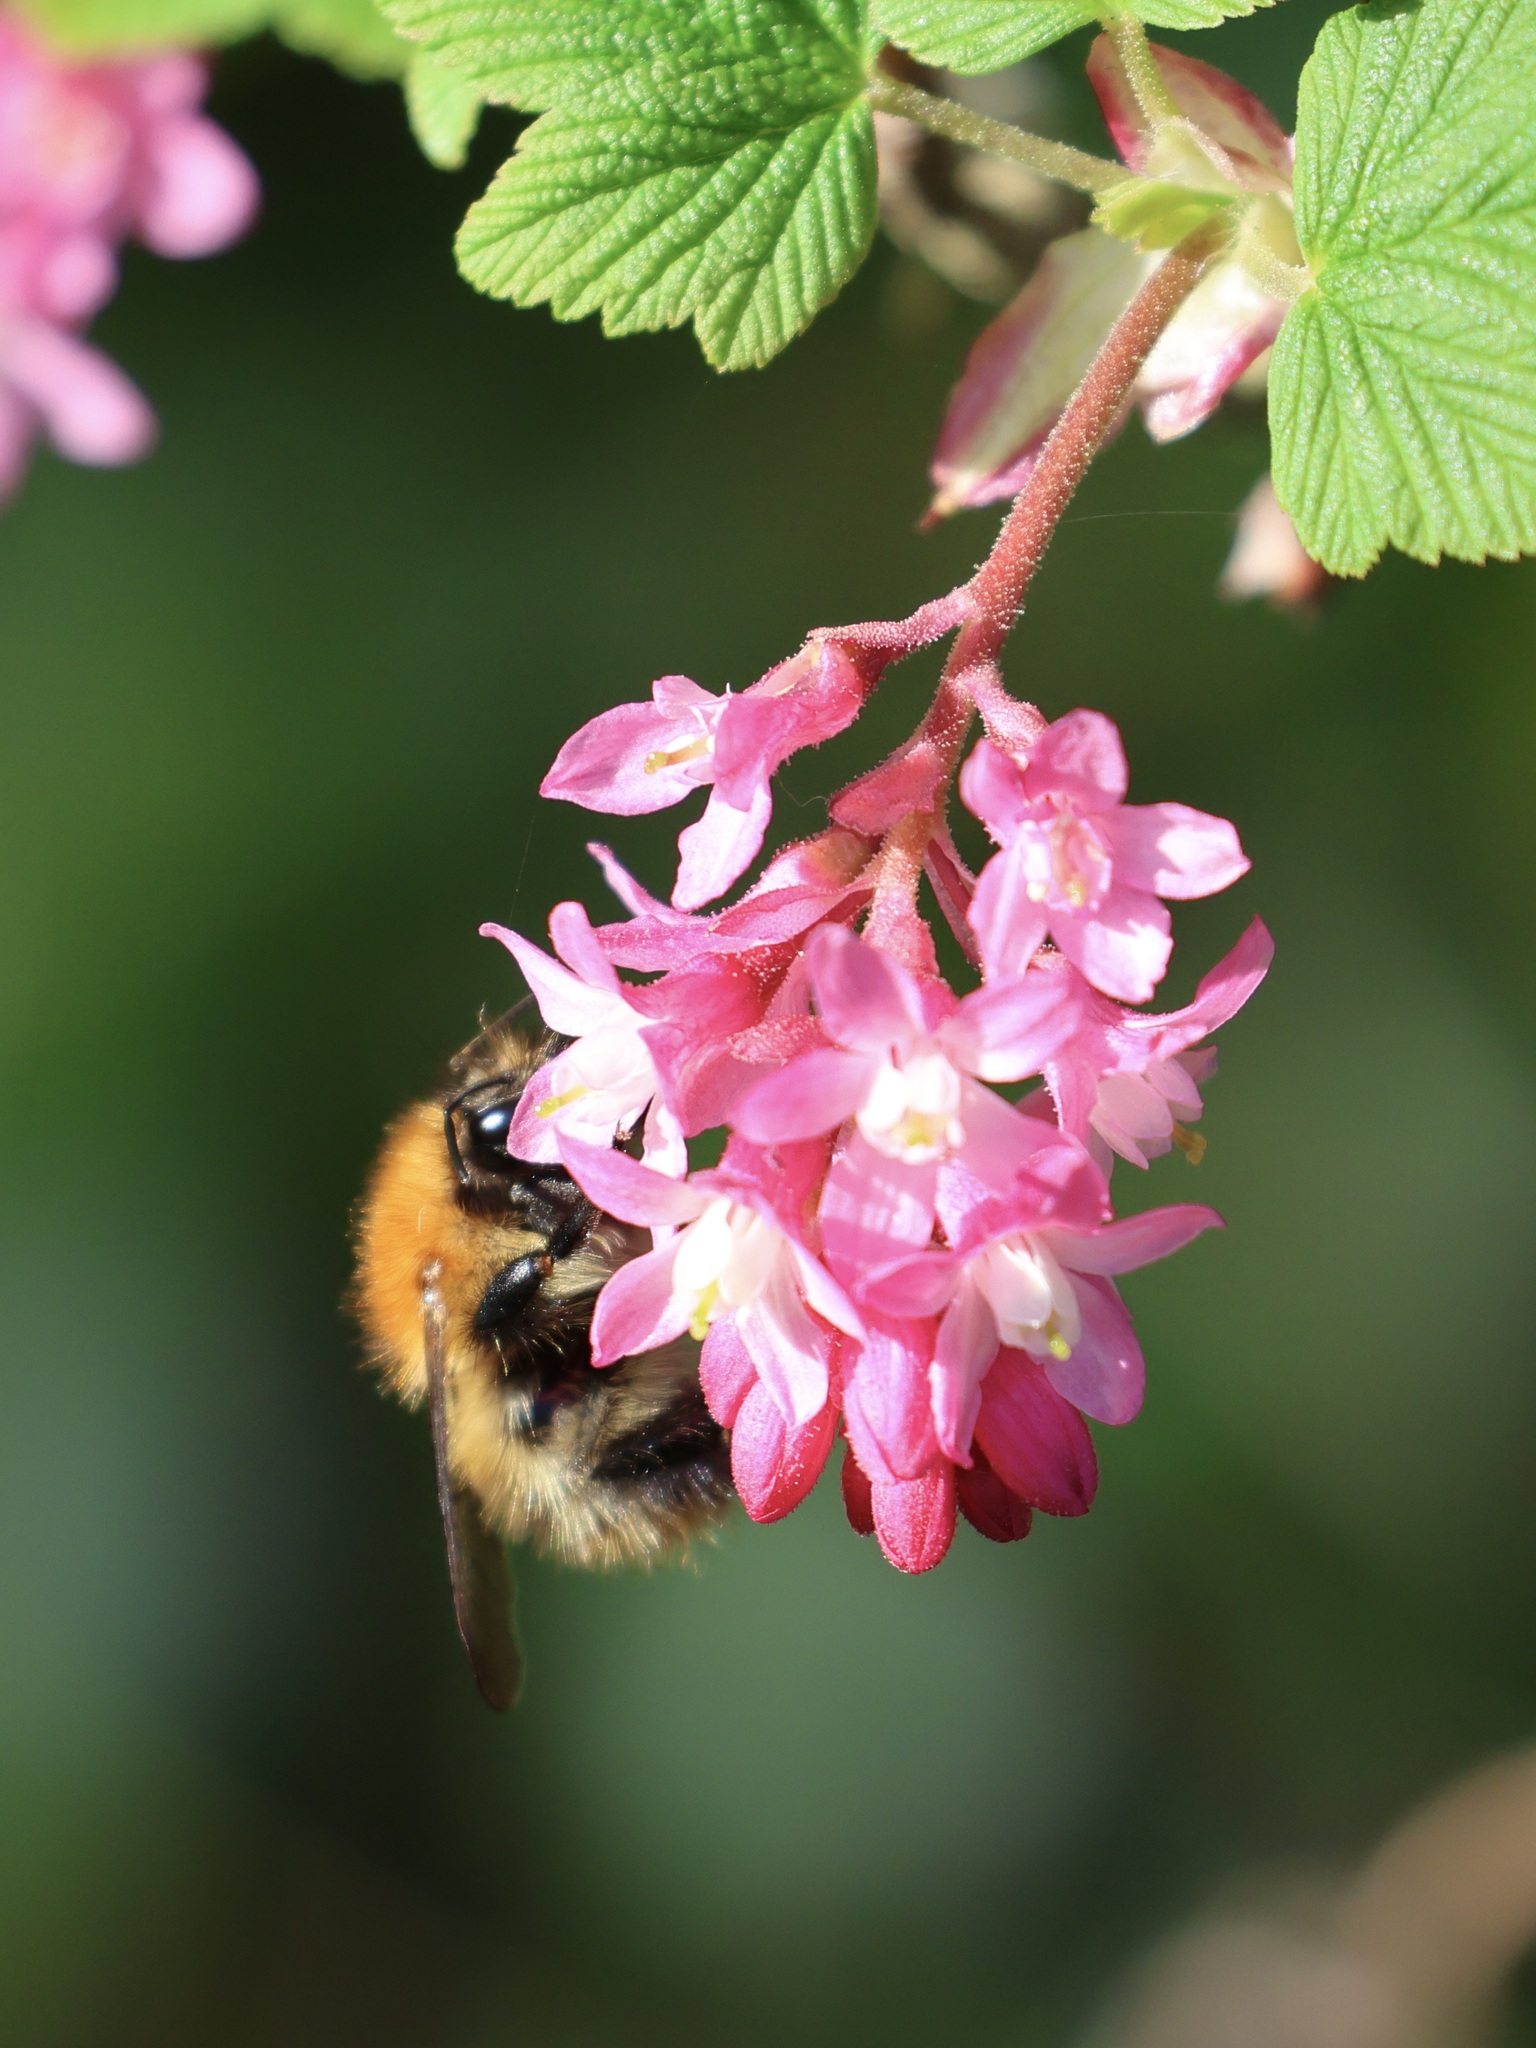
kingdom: Animalia
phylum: Arthropoda
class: Insecta
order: Hymenoptera
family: Apidae
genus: Bombus
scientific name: Bombus pascuorum
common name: Common carder bee
